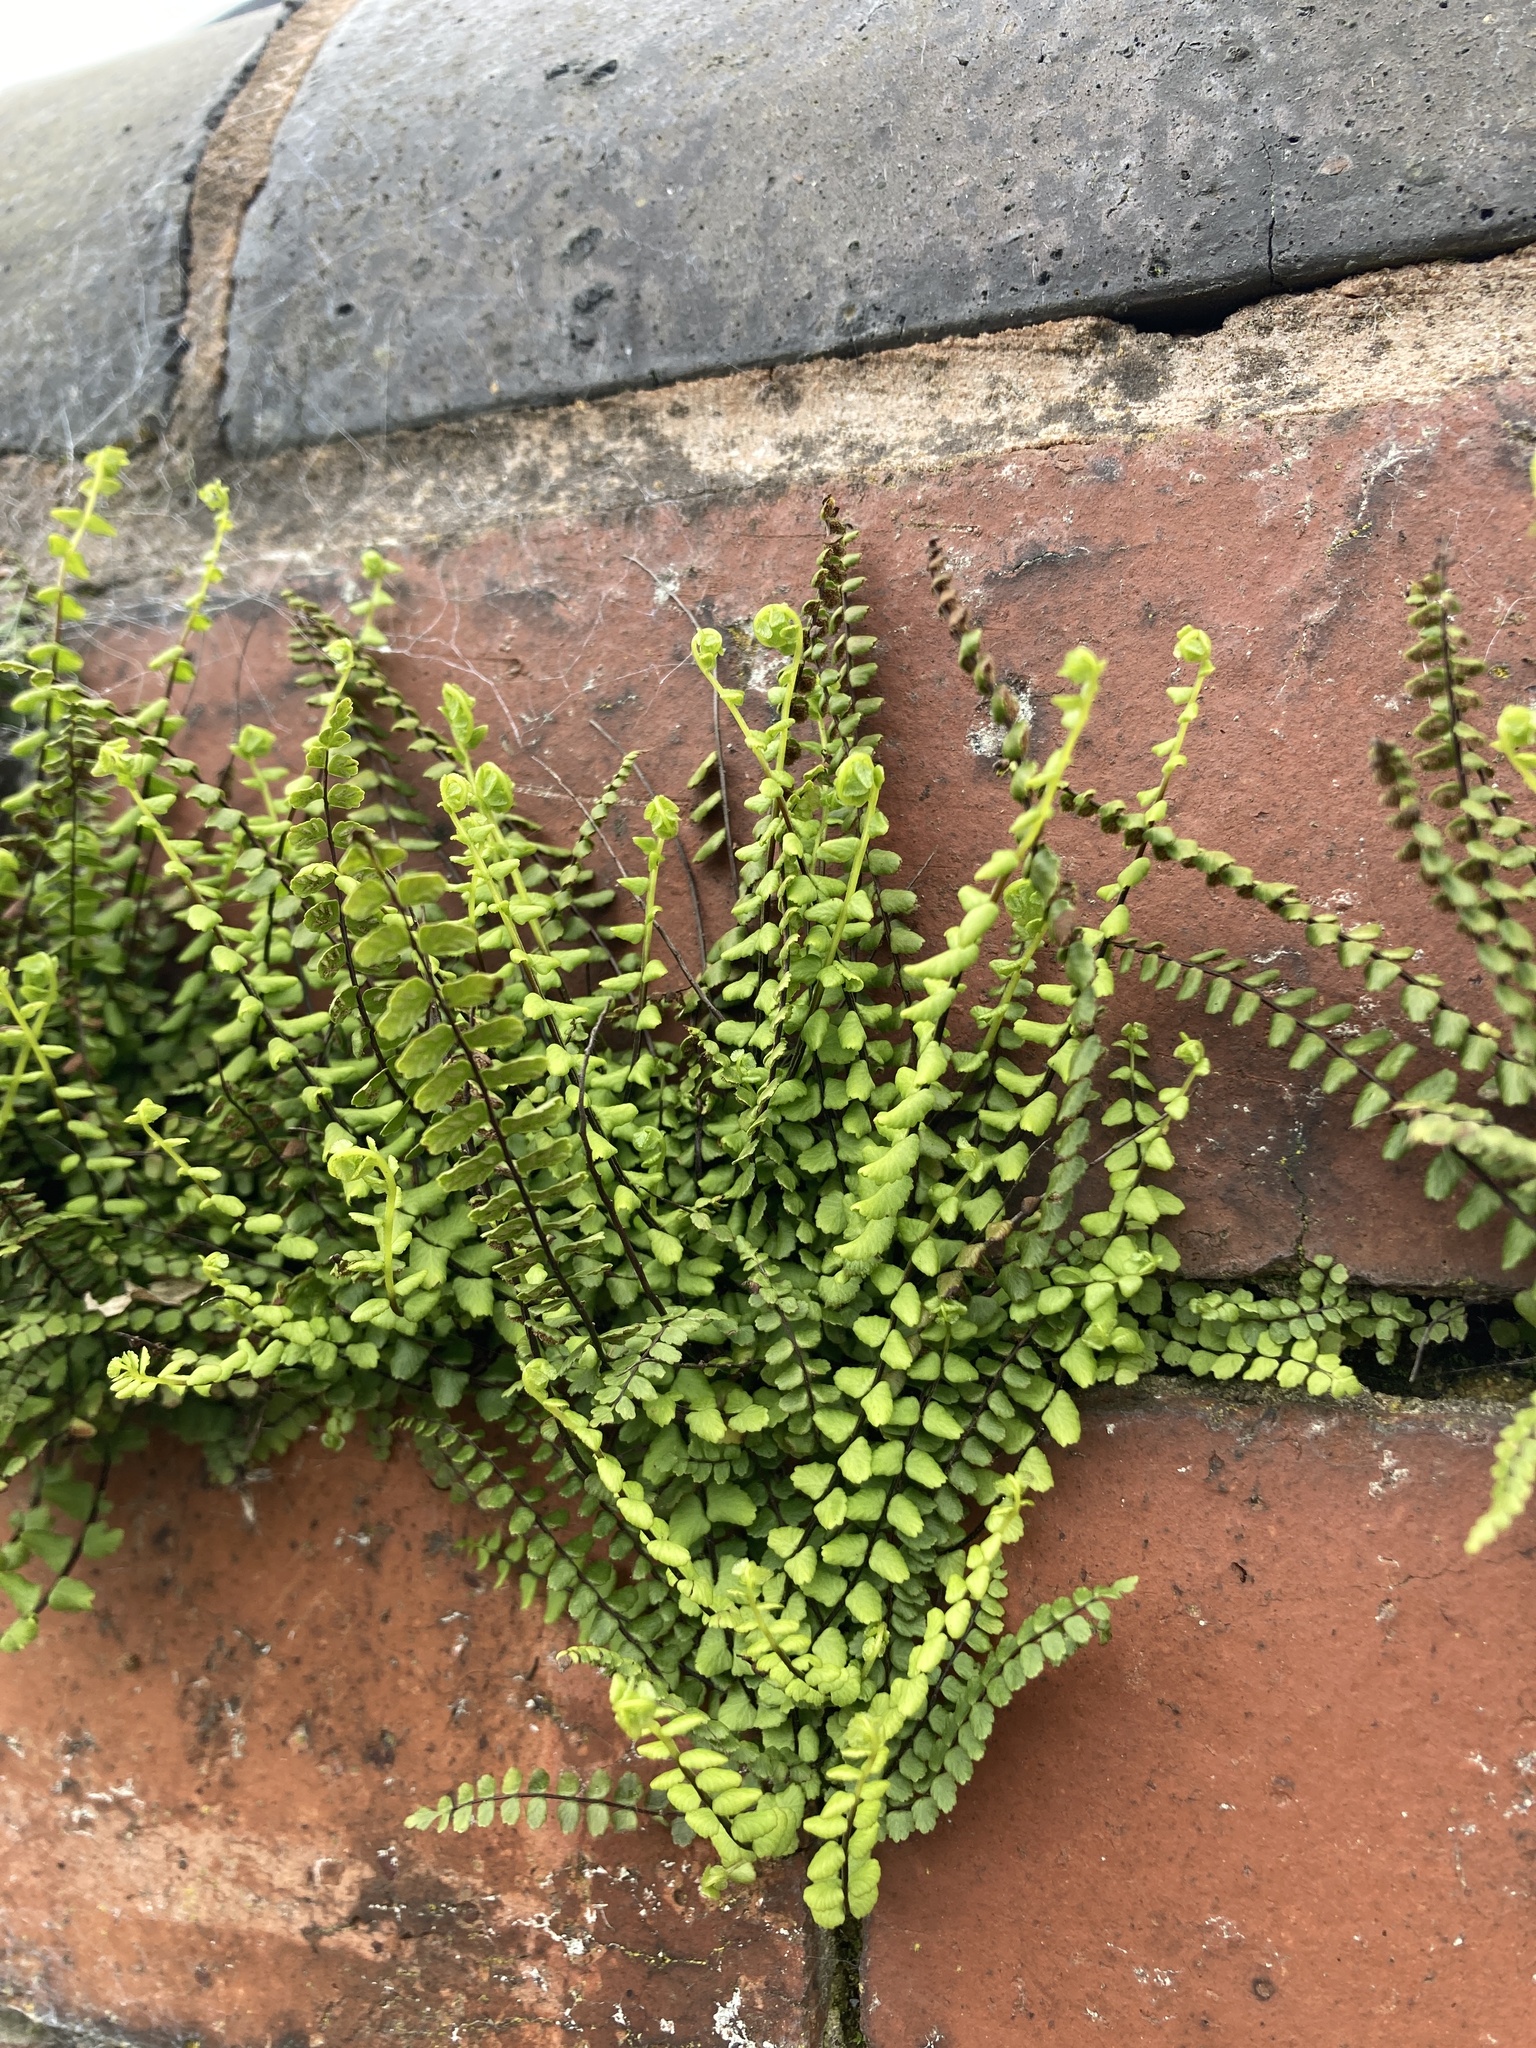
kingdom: Plantae
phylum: Tracheophyta
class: Polypodiopsida
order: Polypodiales
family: Aspleniaceae
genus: Asplenium
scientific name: Asplenium trichomanes
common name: Maidenhair spleenwort
